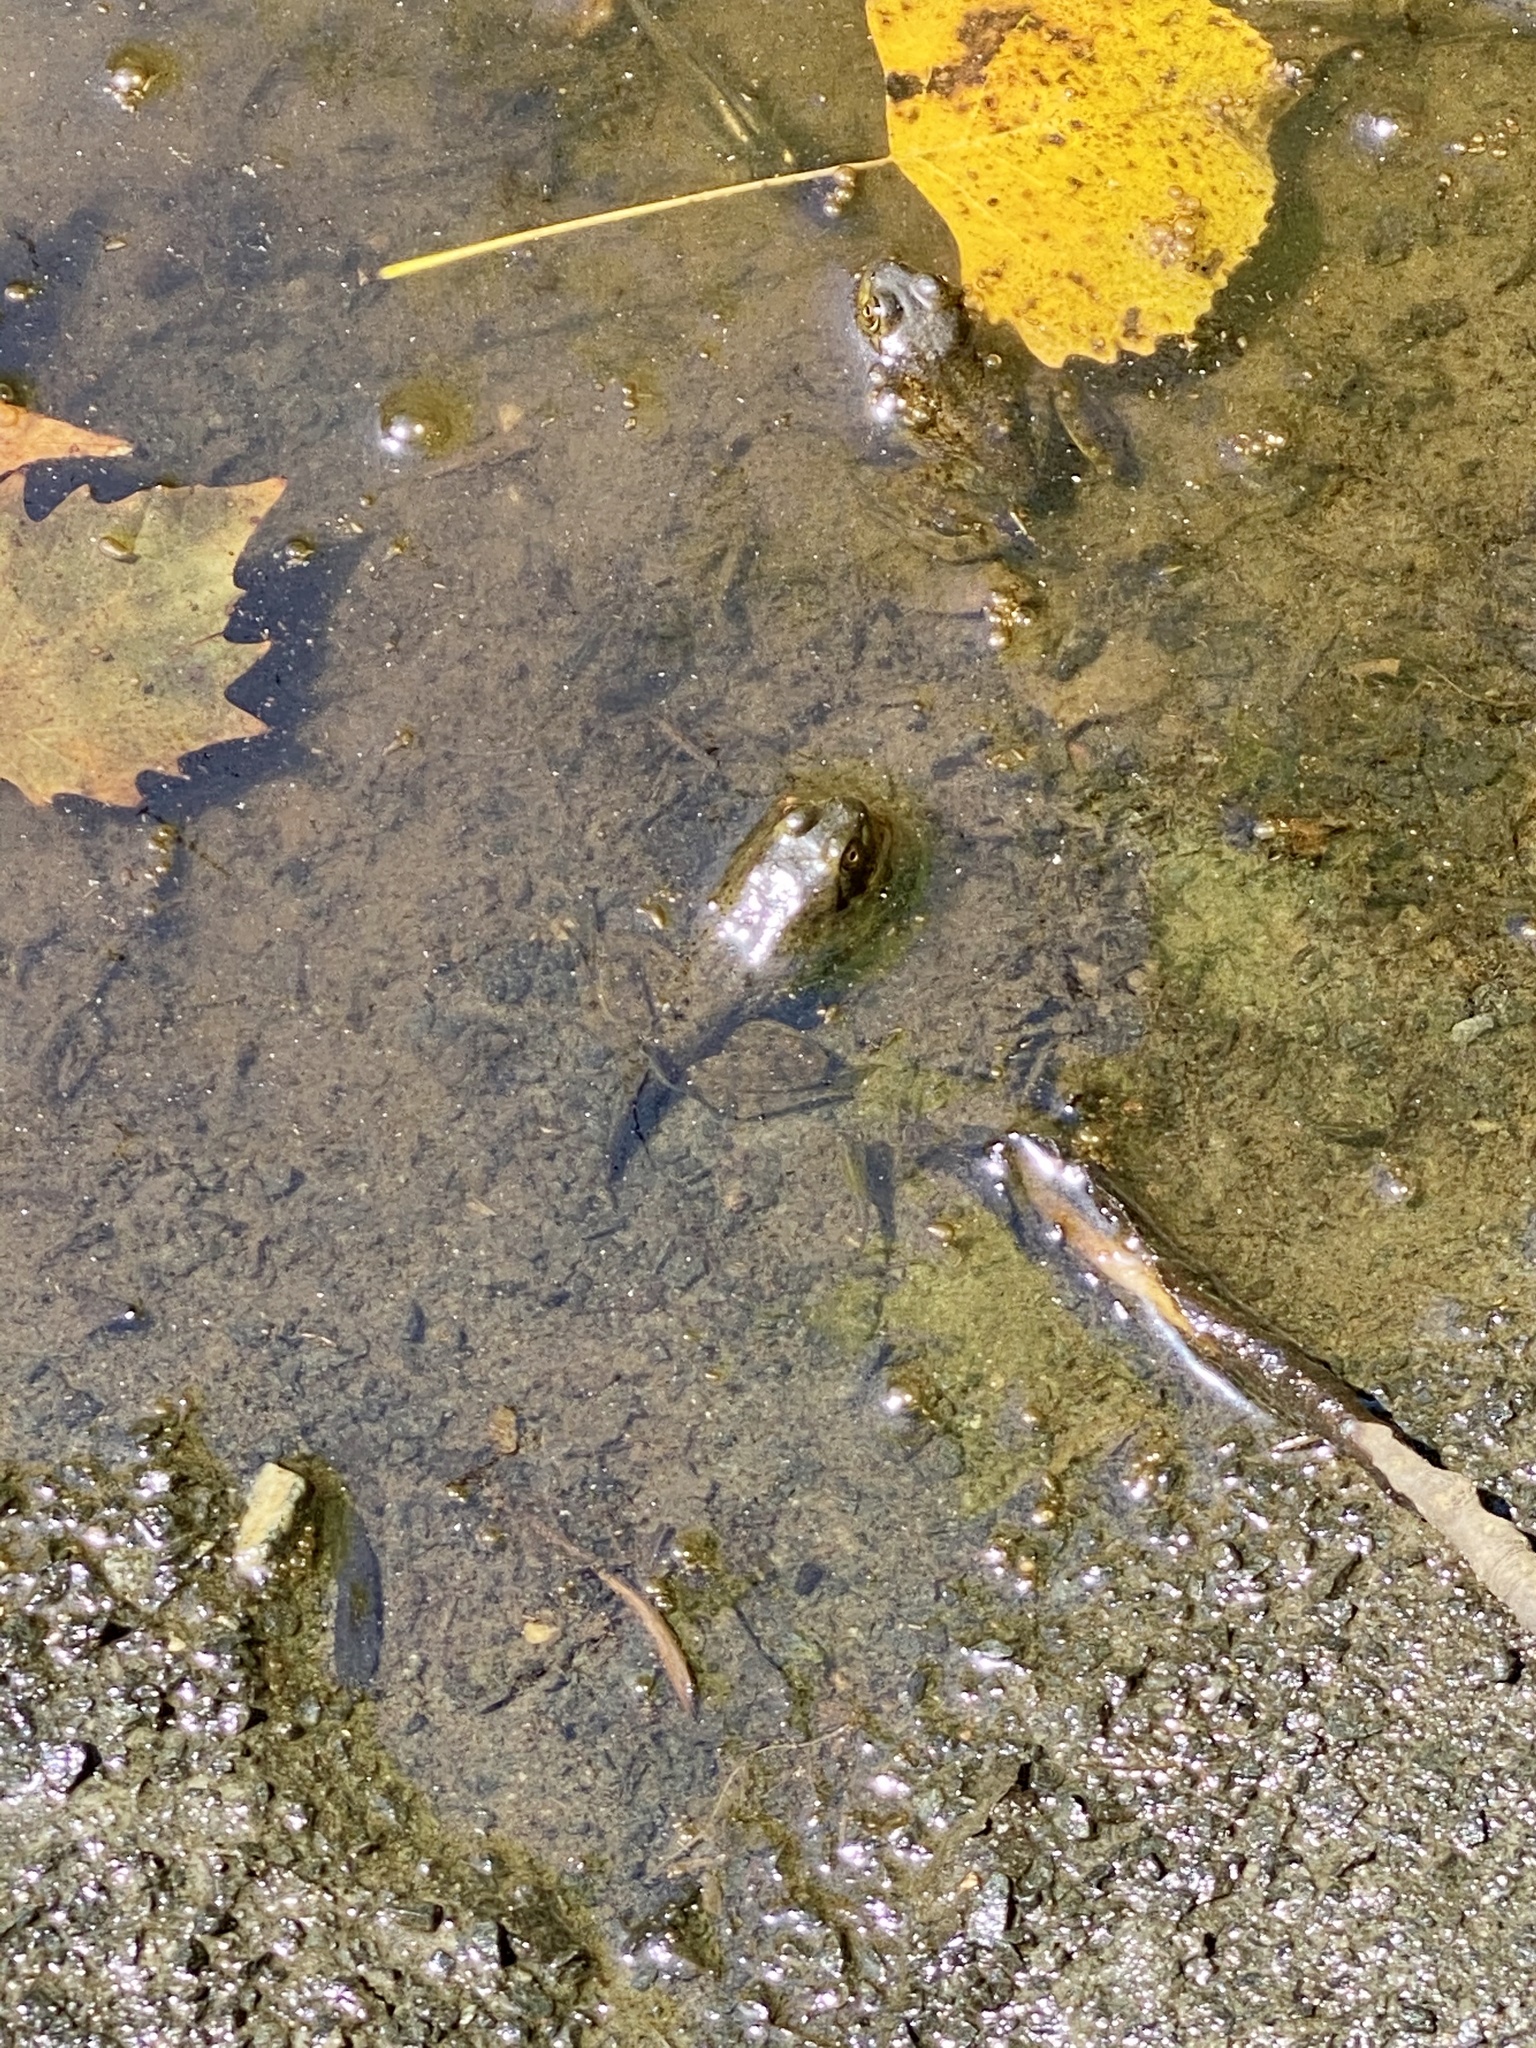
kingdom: Animalia
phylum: Chordata
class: Amphibia
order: Anura
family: Ranidae
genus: Lithobates
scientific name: Lithobates catesbeianus
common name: American bullfrog
